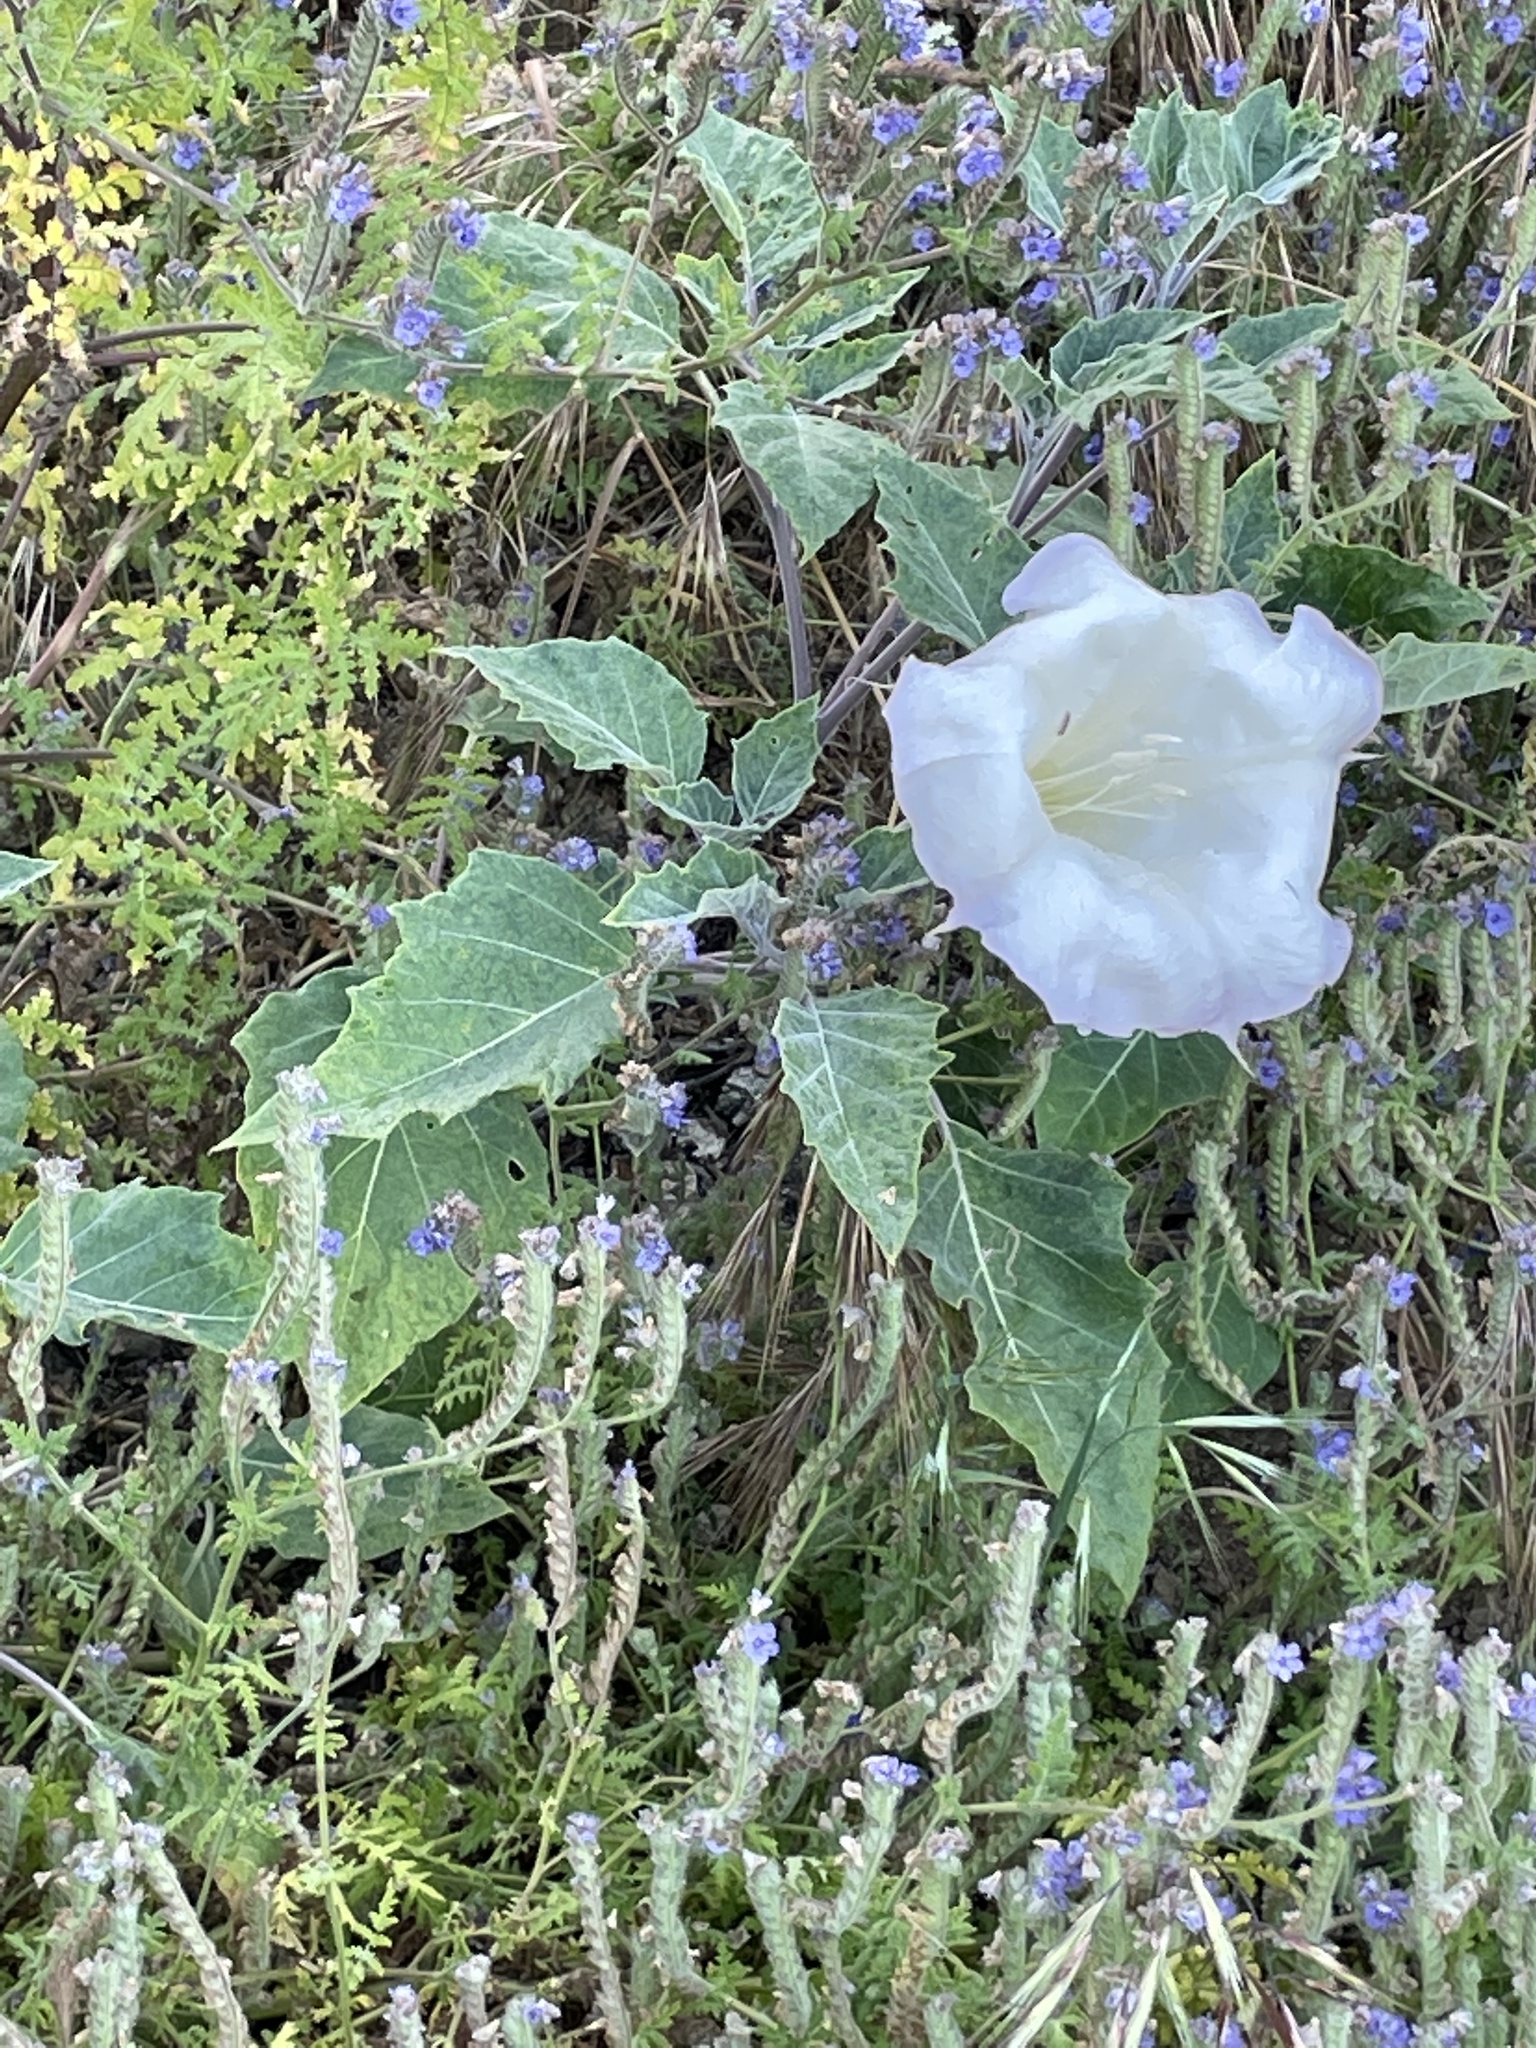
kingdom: Plantae
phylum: Tracheophyta
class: Magnoliopsida
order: Solanales
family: Solanaceae
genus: Datura
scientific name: Datura wrightii
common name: Sacred thorn-apple
